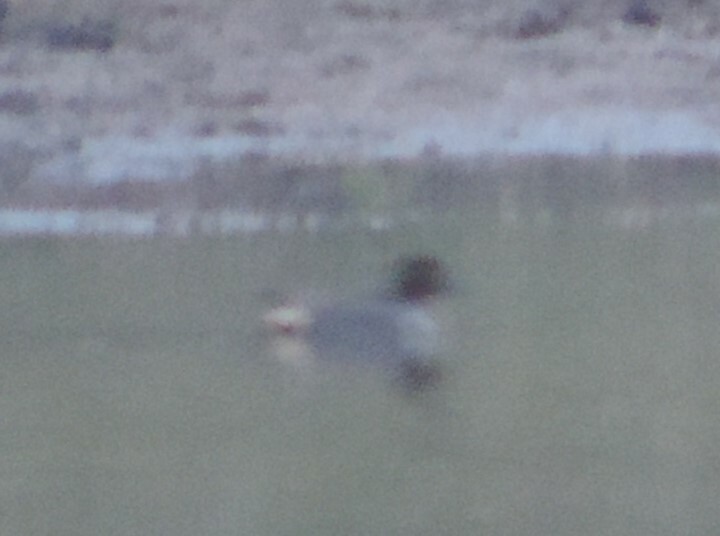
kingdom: Animalia
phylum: Chordata
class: Aves
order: Anseriformes
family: Anatidae
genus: Anas
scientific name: Anas carolinensis
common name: Green-winged teal
